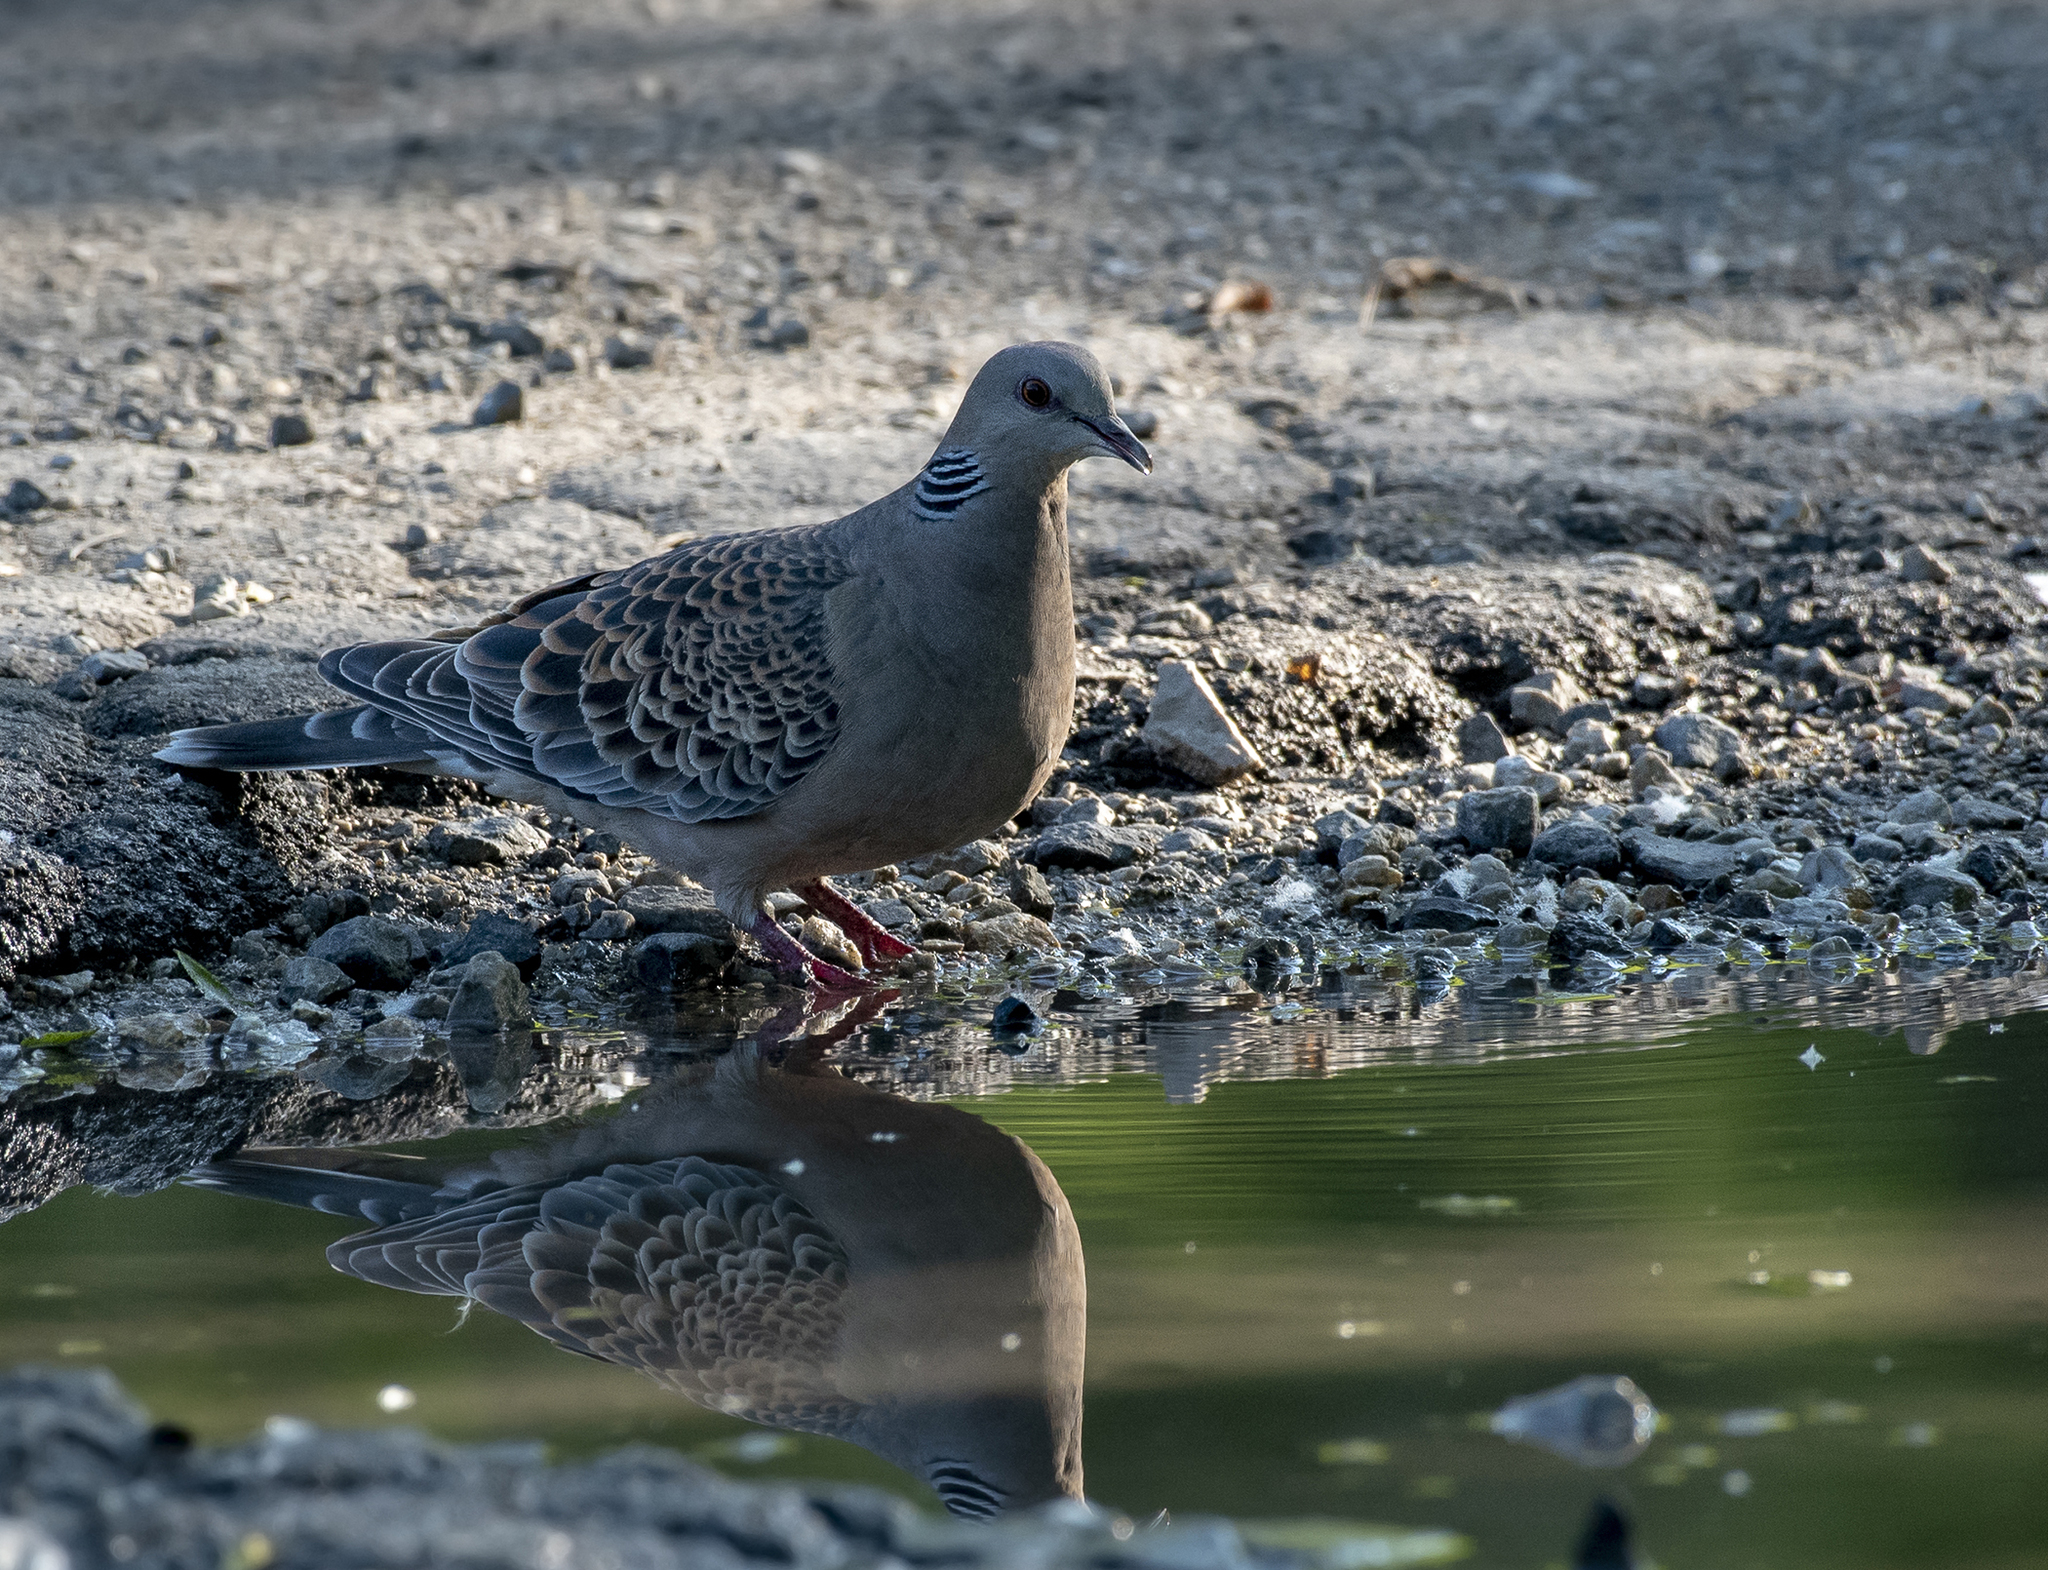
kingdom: Animalia
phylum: Chordata
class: Aves
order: Columbiformes
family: Columbidae
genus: Streptopelia
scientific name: Streptopelia orientalis
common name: Oriental turtle dove
